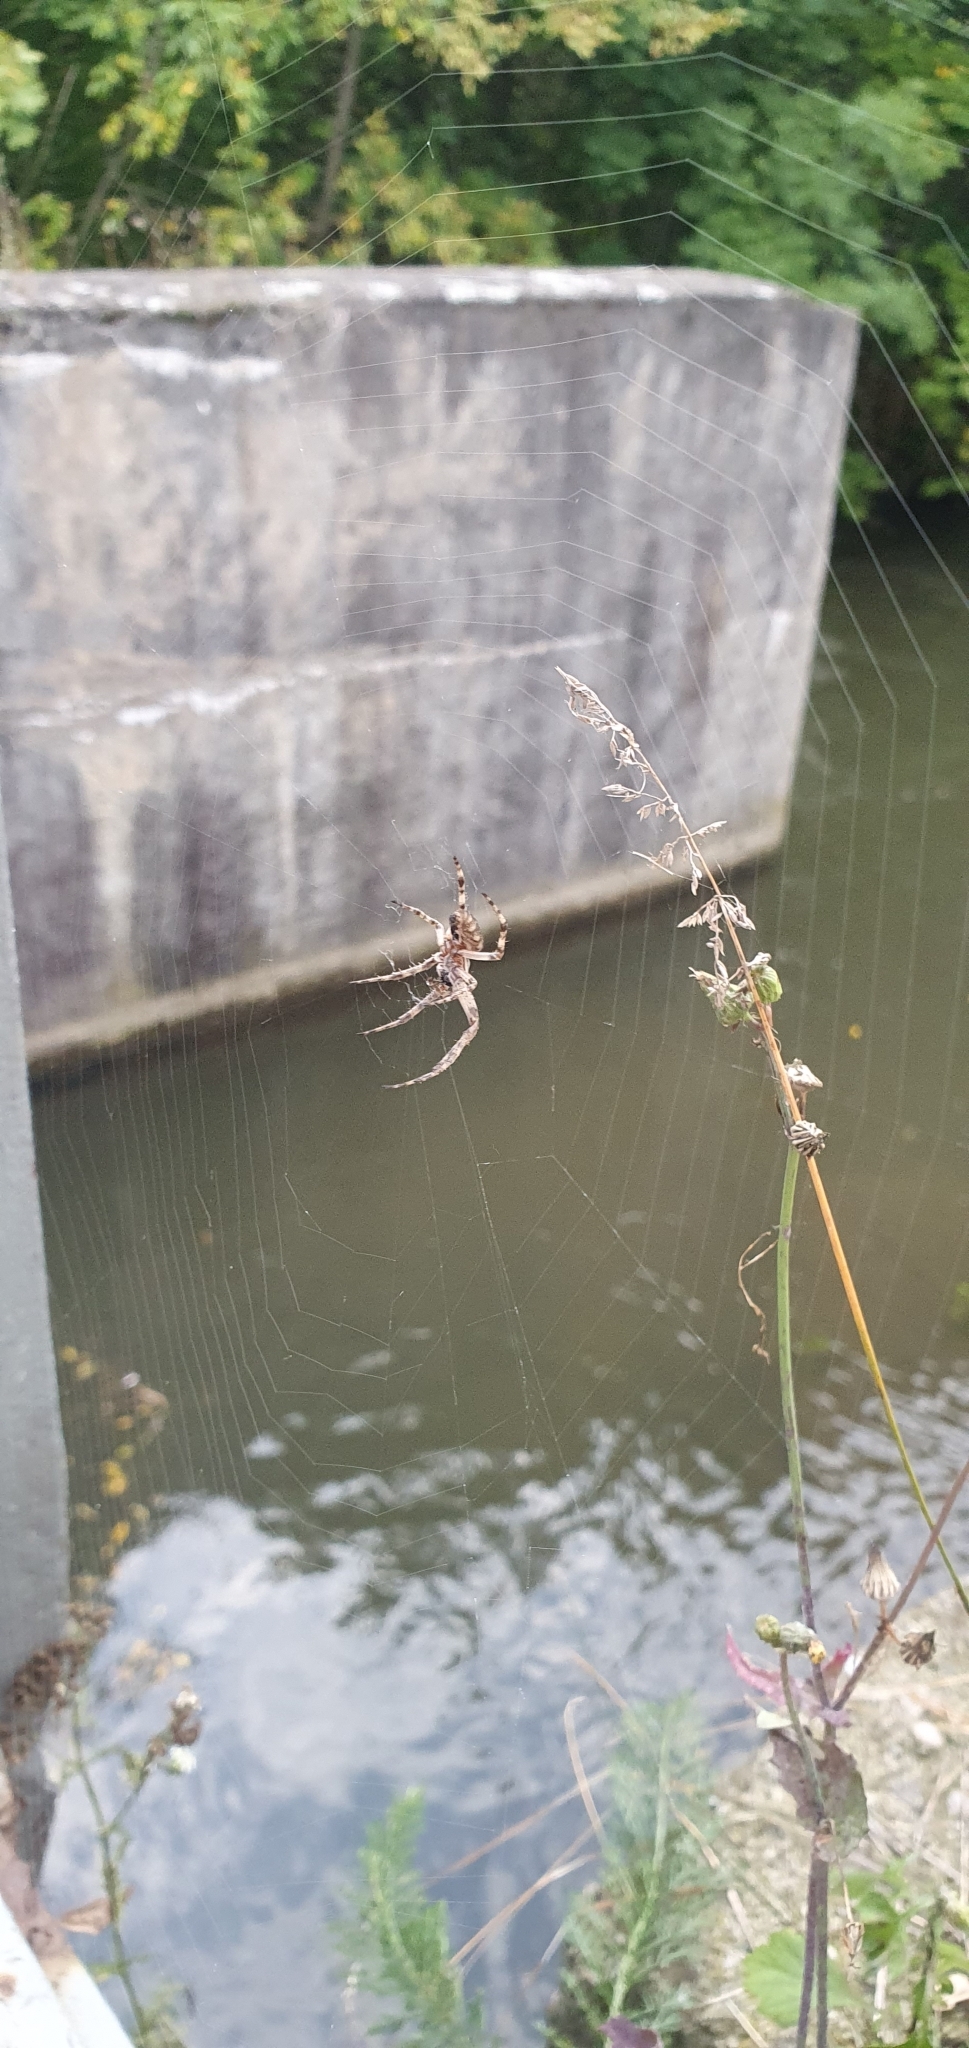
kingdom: Animalia
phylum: Arthropoda
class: Arachnida
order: Araneae
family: Araneidae
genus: Araneus
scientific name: Araneus diadematus
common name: Cross orbweaver
